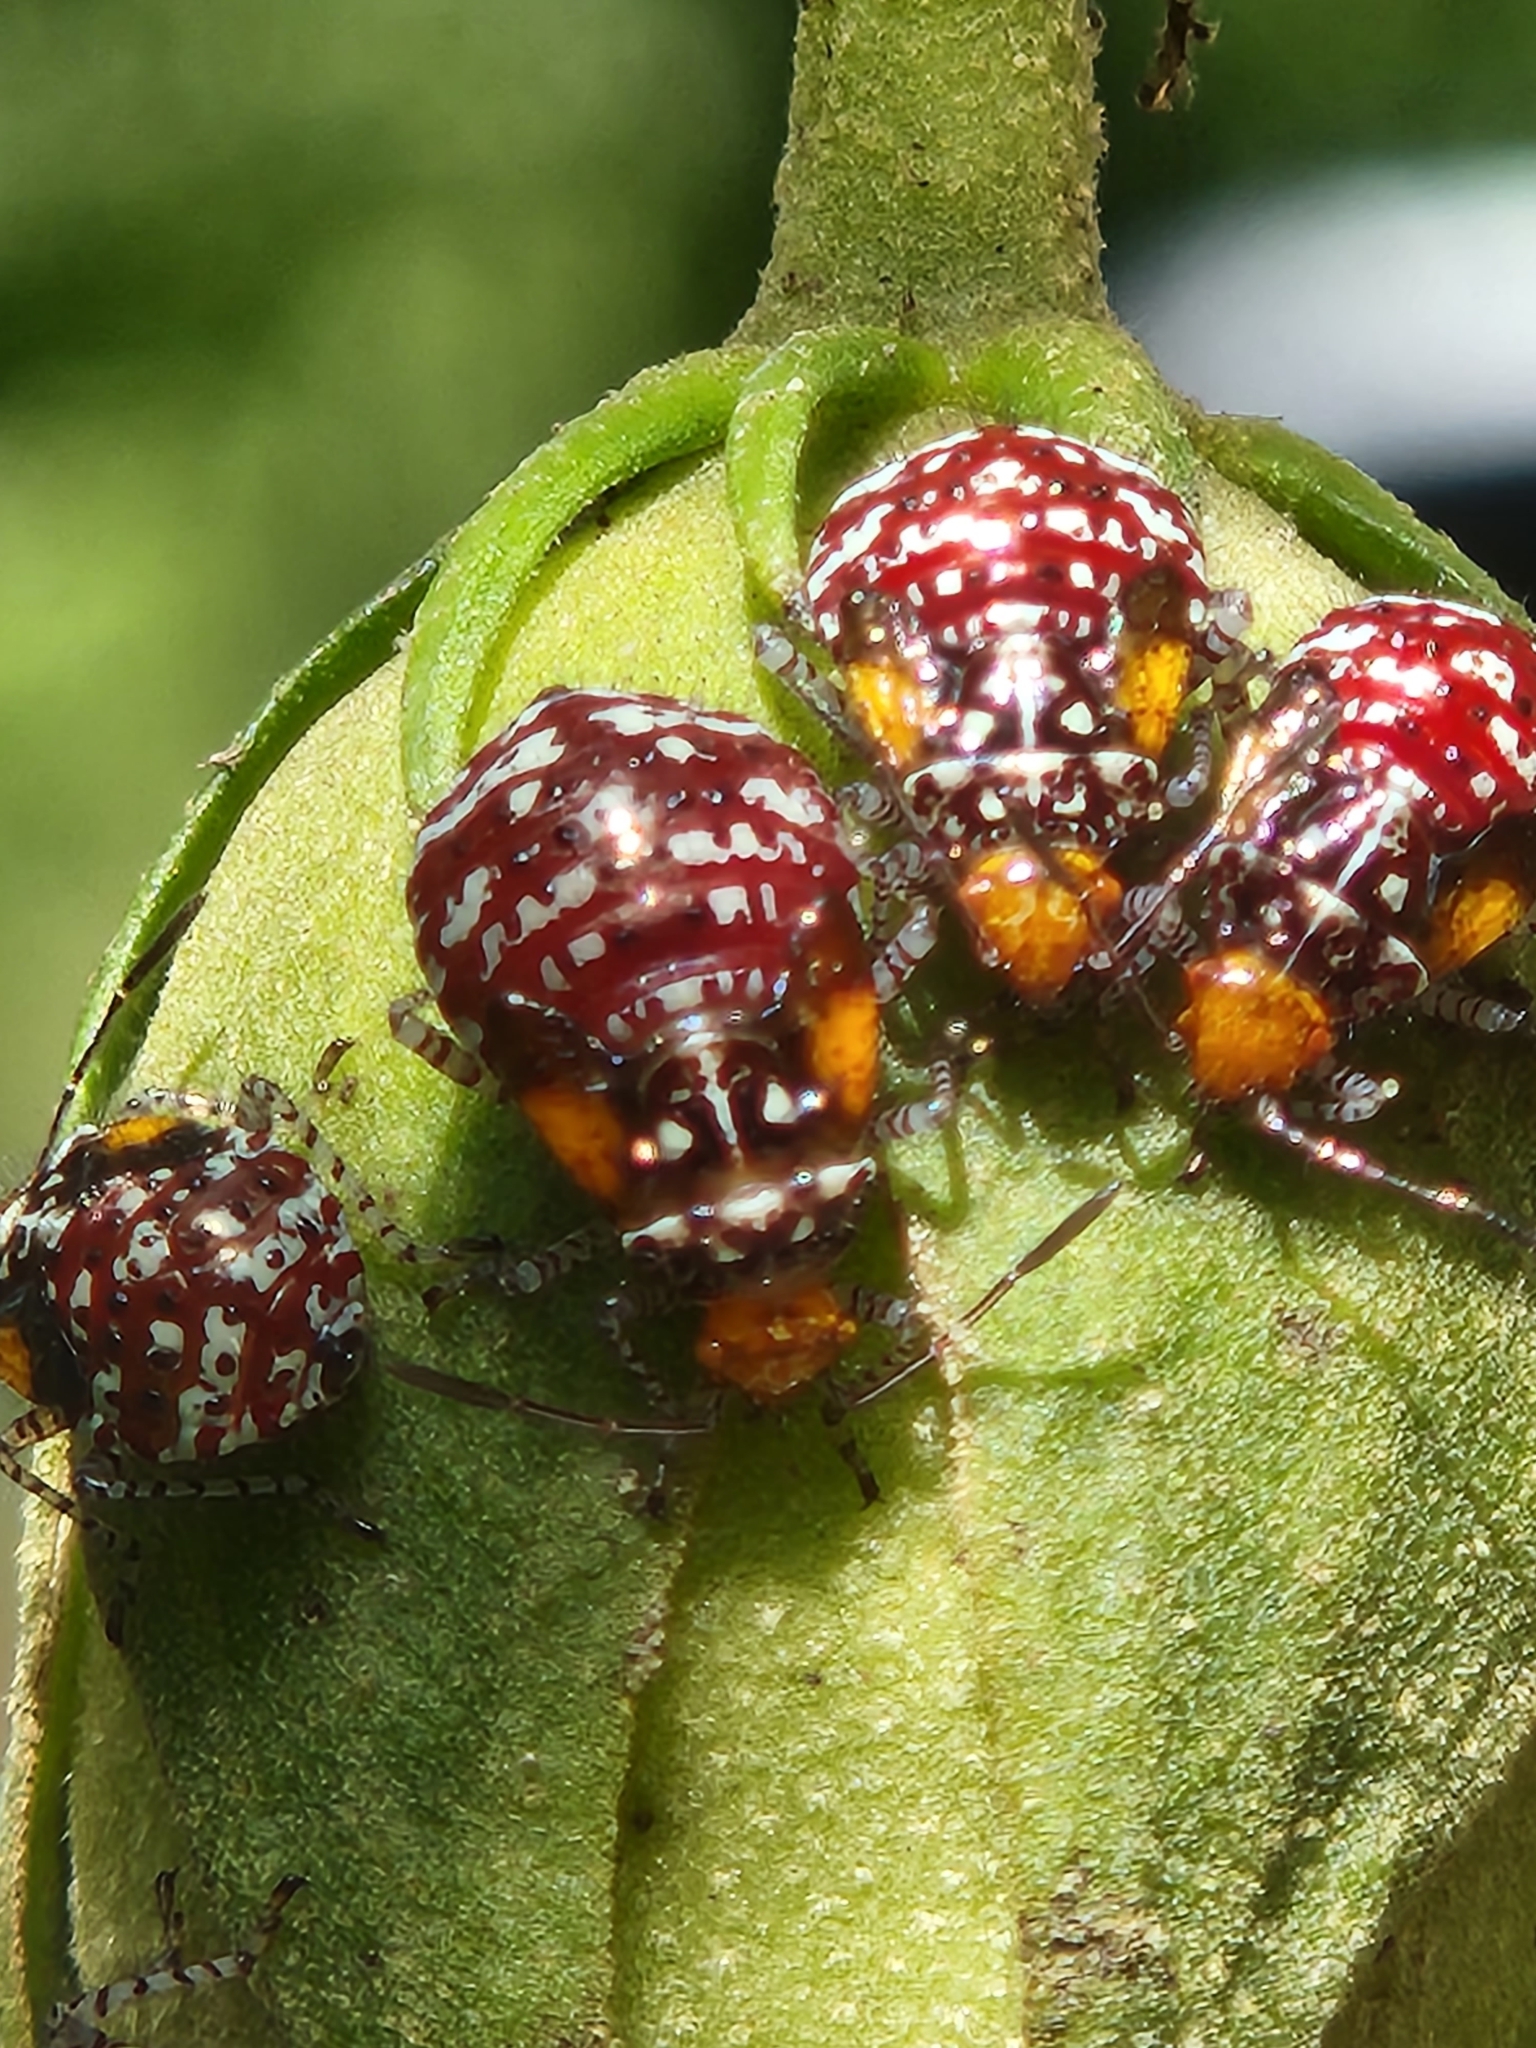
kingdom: Animalia
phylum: Arthropoda
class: Insecta
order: Hemiptera
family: Rhopalidae
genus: Niesthrea
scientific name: Niesthrea louisianica
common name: Scentless plant bug
